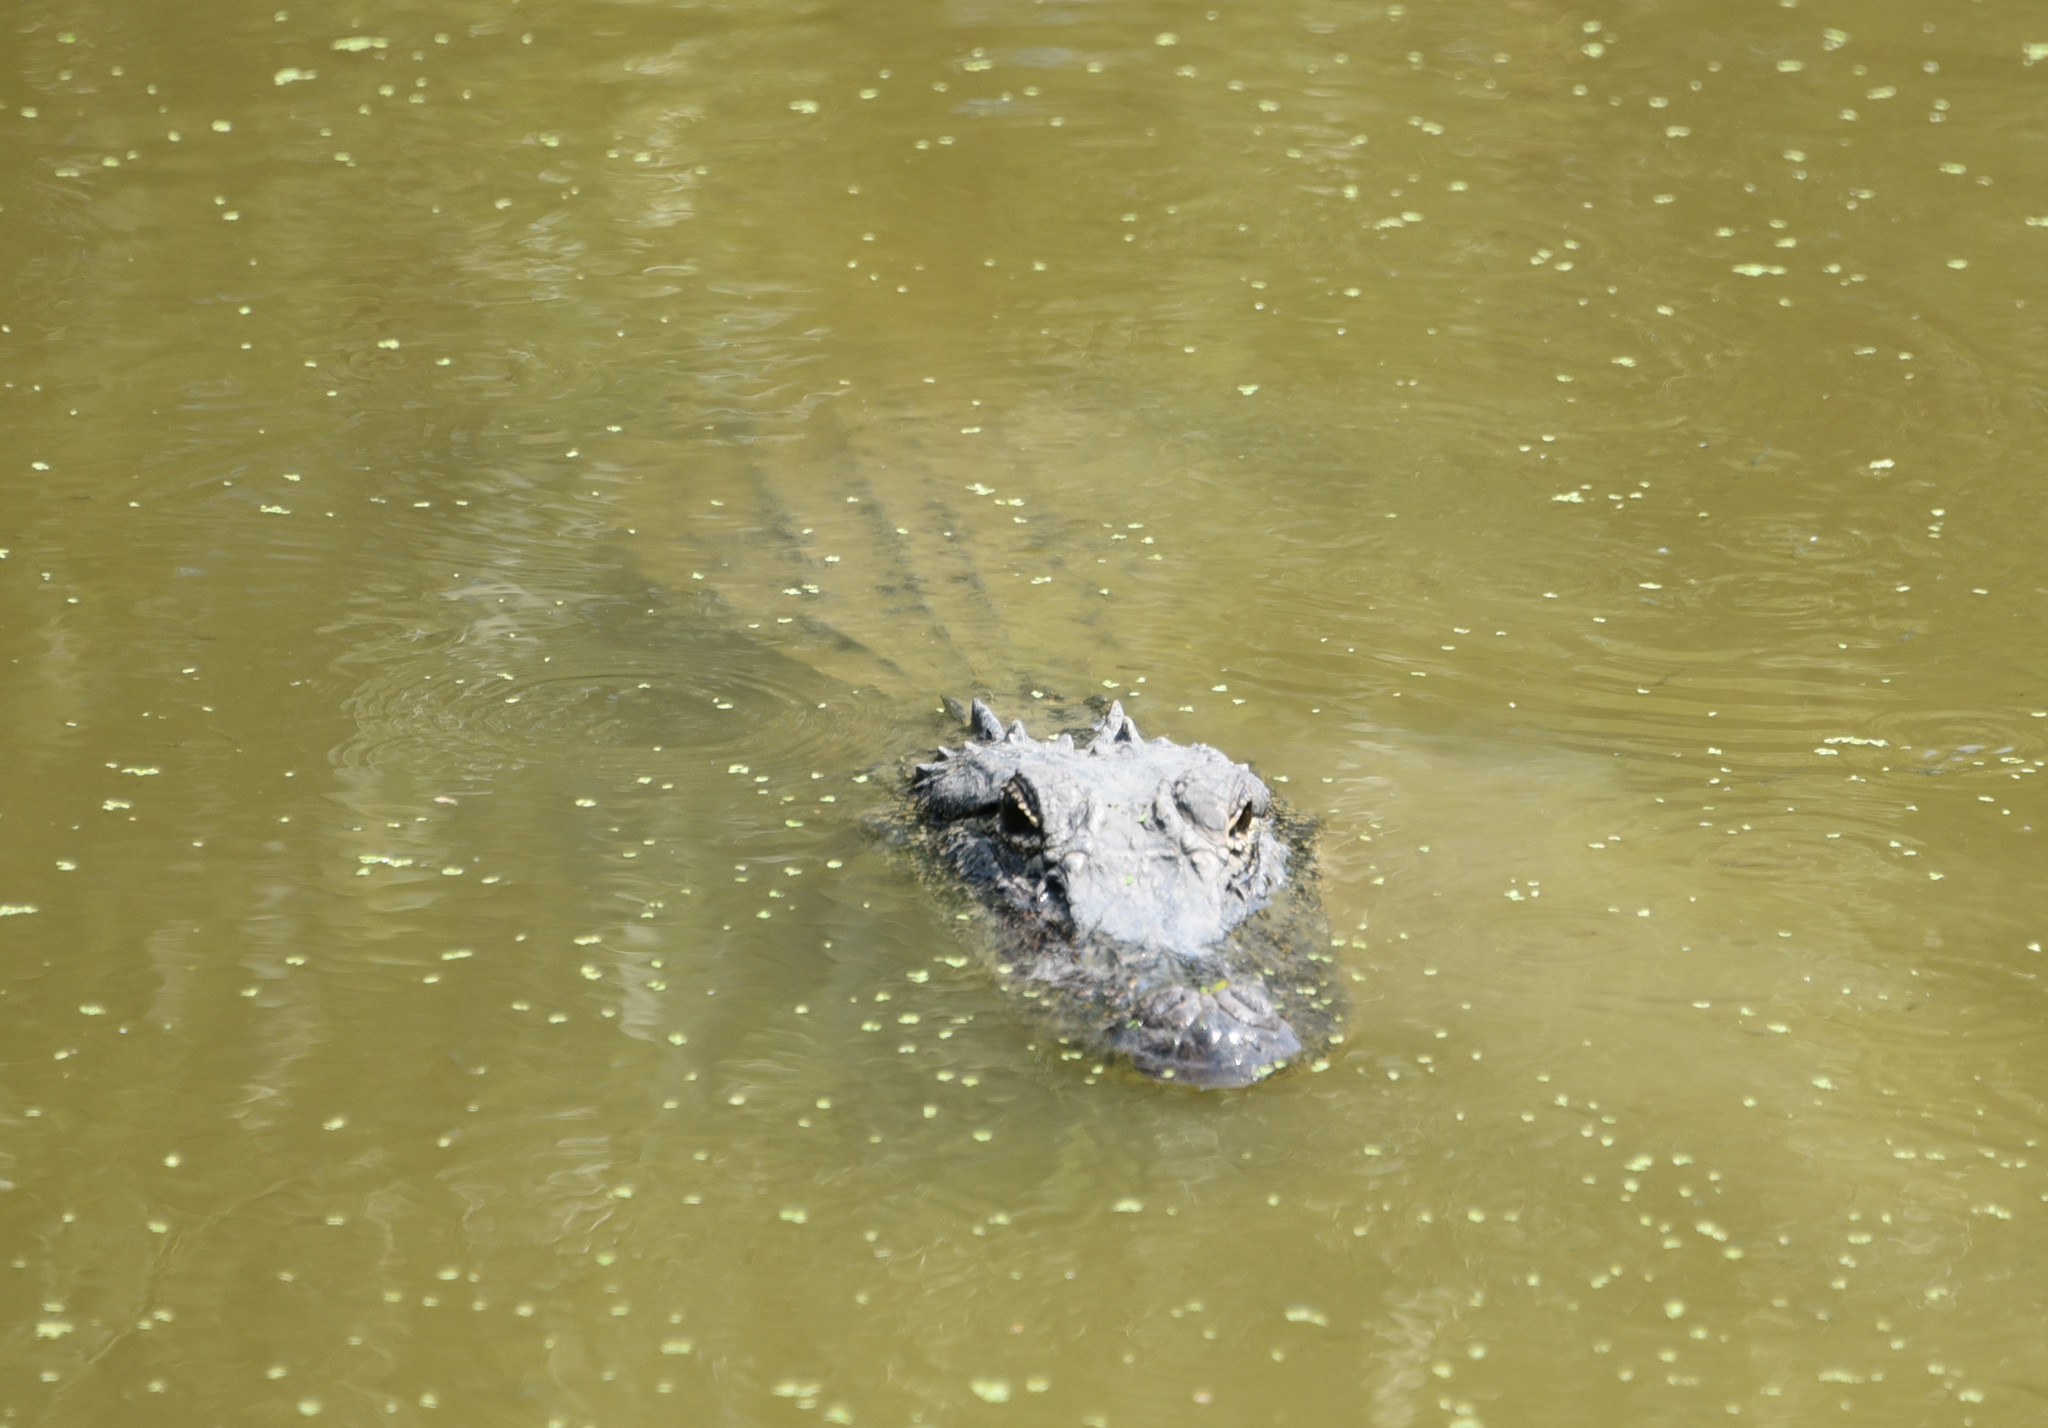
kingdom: Animalia
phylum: Chordata
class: Crocodylia
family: Alligatoridae
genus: Alligator
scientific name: Alligator mississippiensis
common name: American alligator
